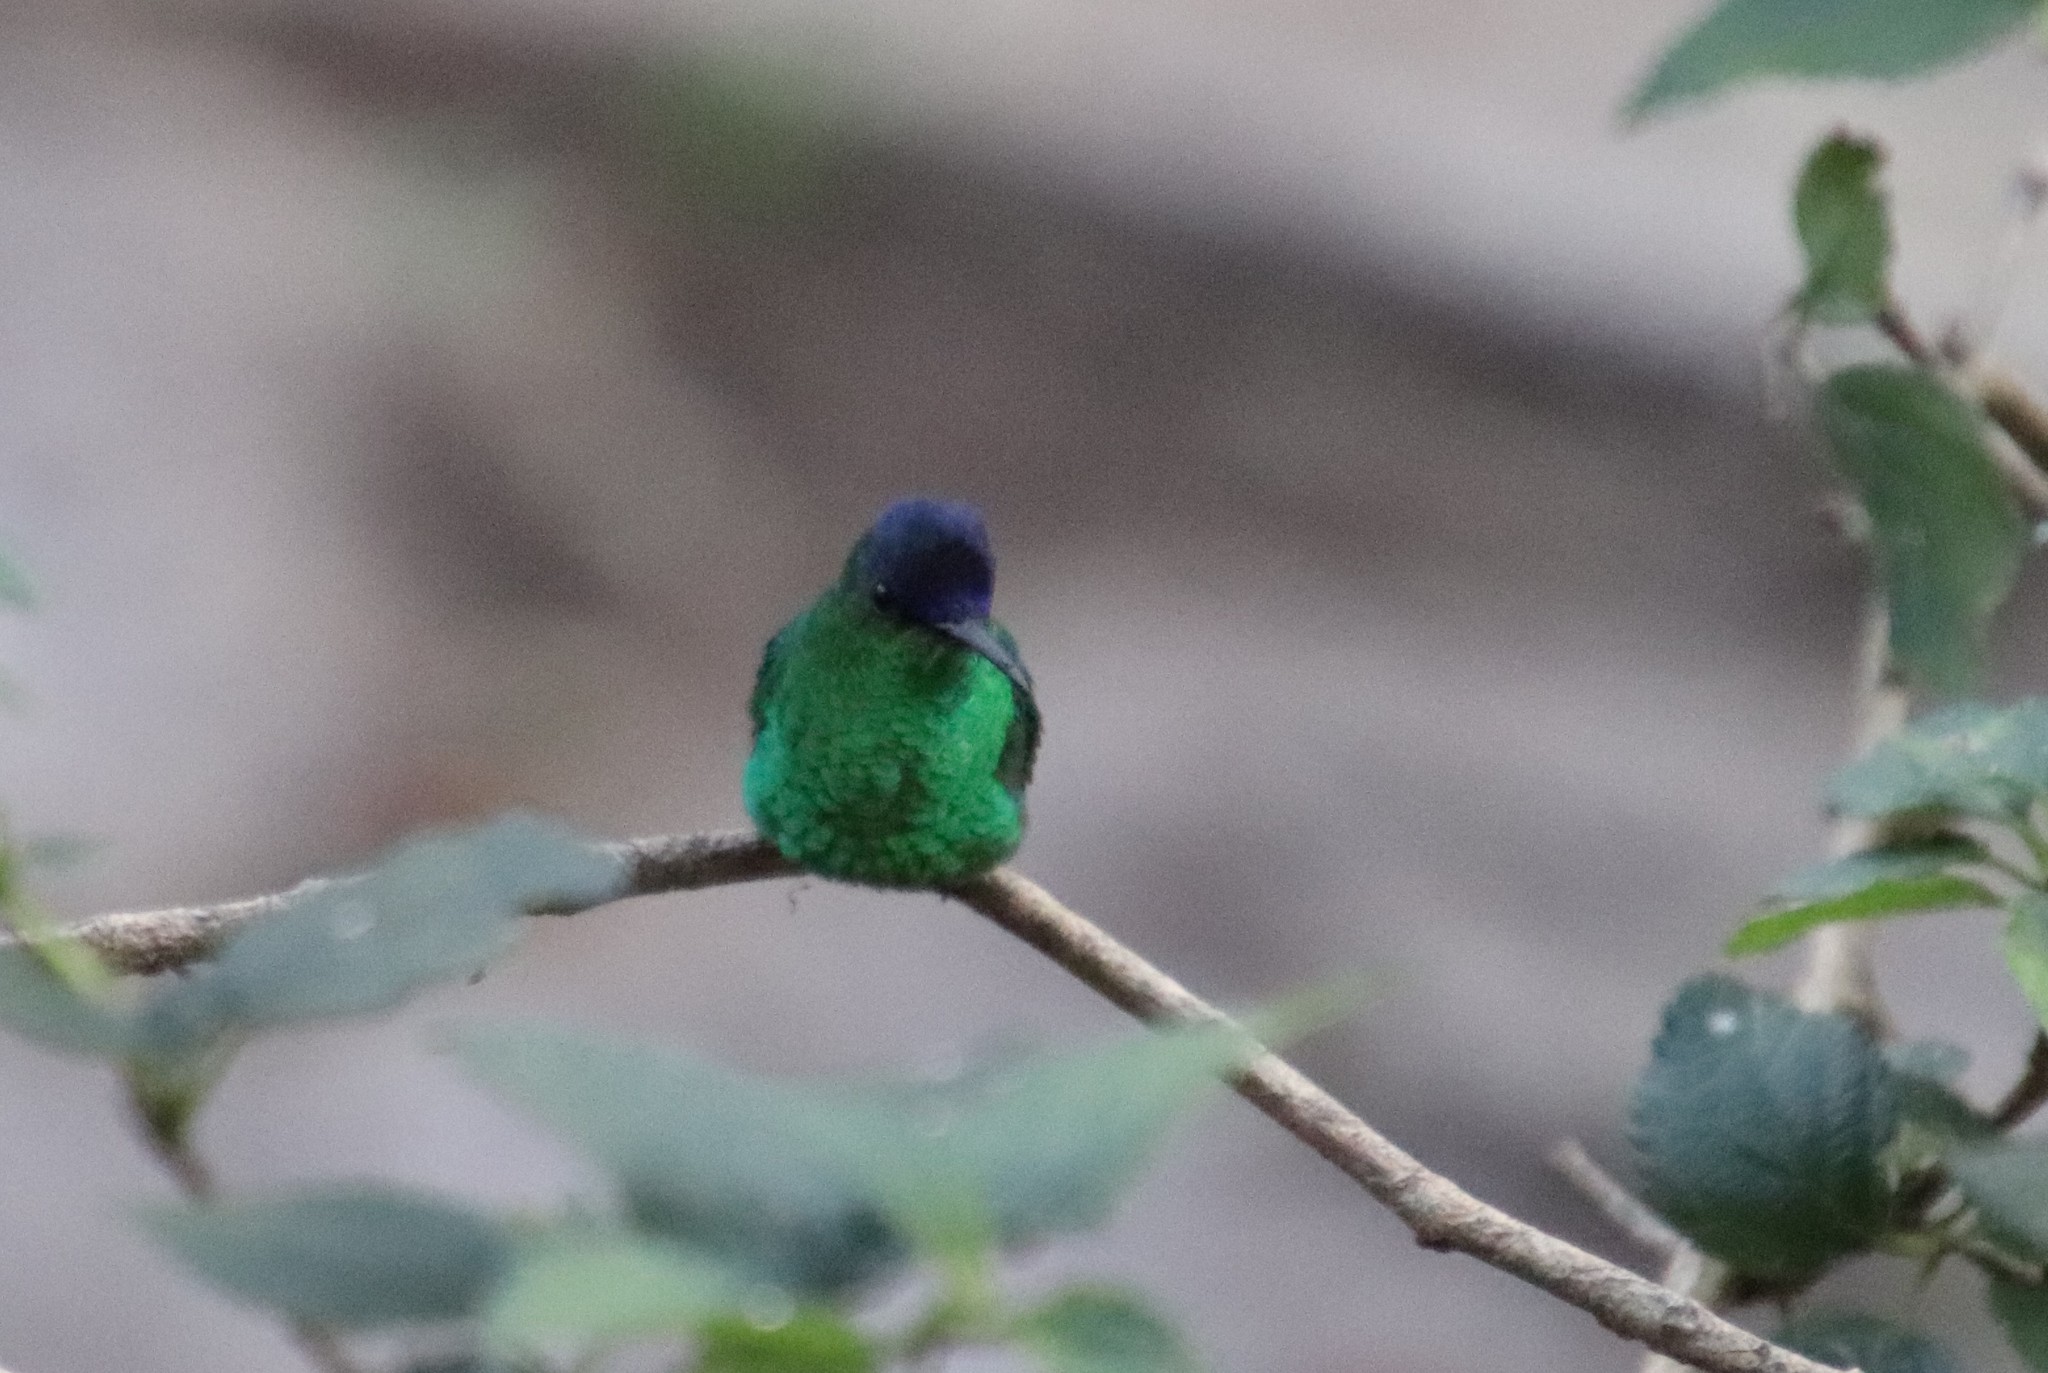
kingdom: Animalia
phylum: Chordata
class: Aves
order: Apodiformes
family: Trochilidae
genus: Thalurania
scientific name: Thalurania glaucopis
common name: Violet-capped woodnymph
